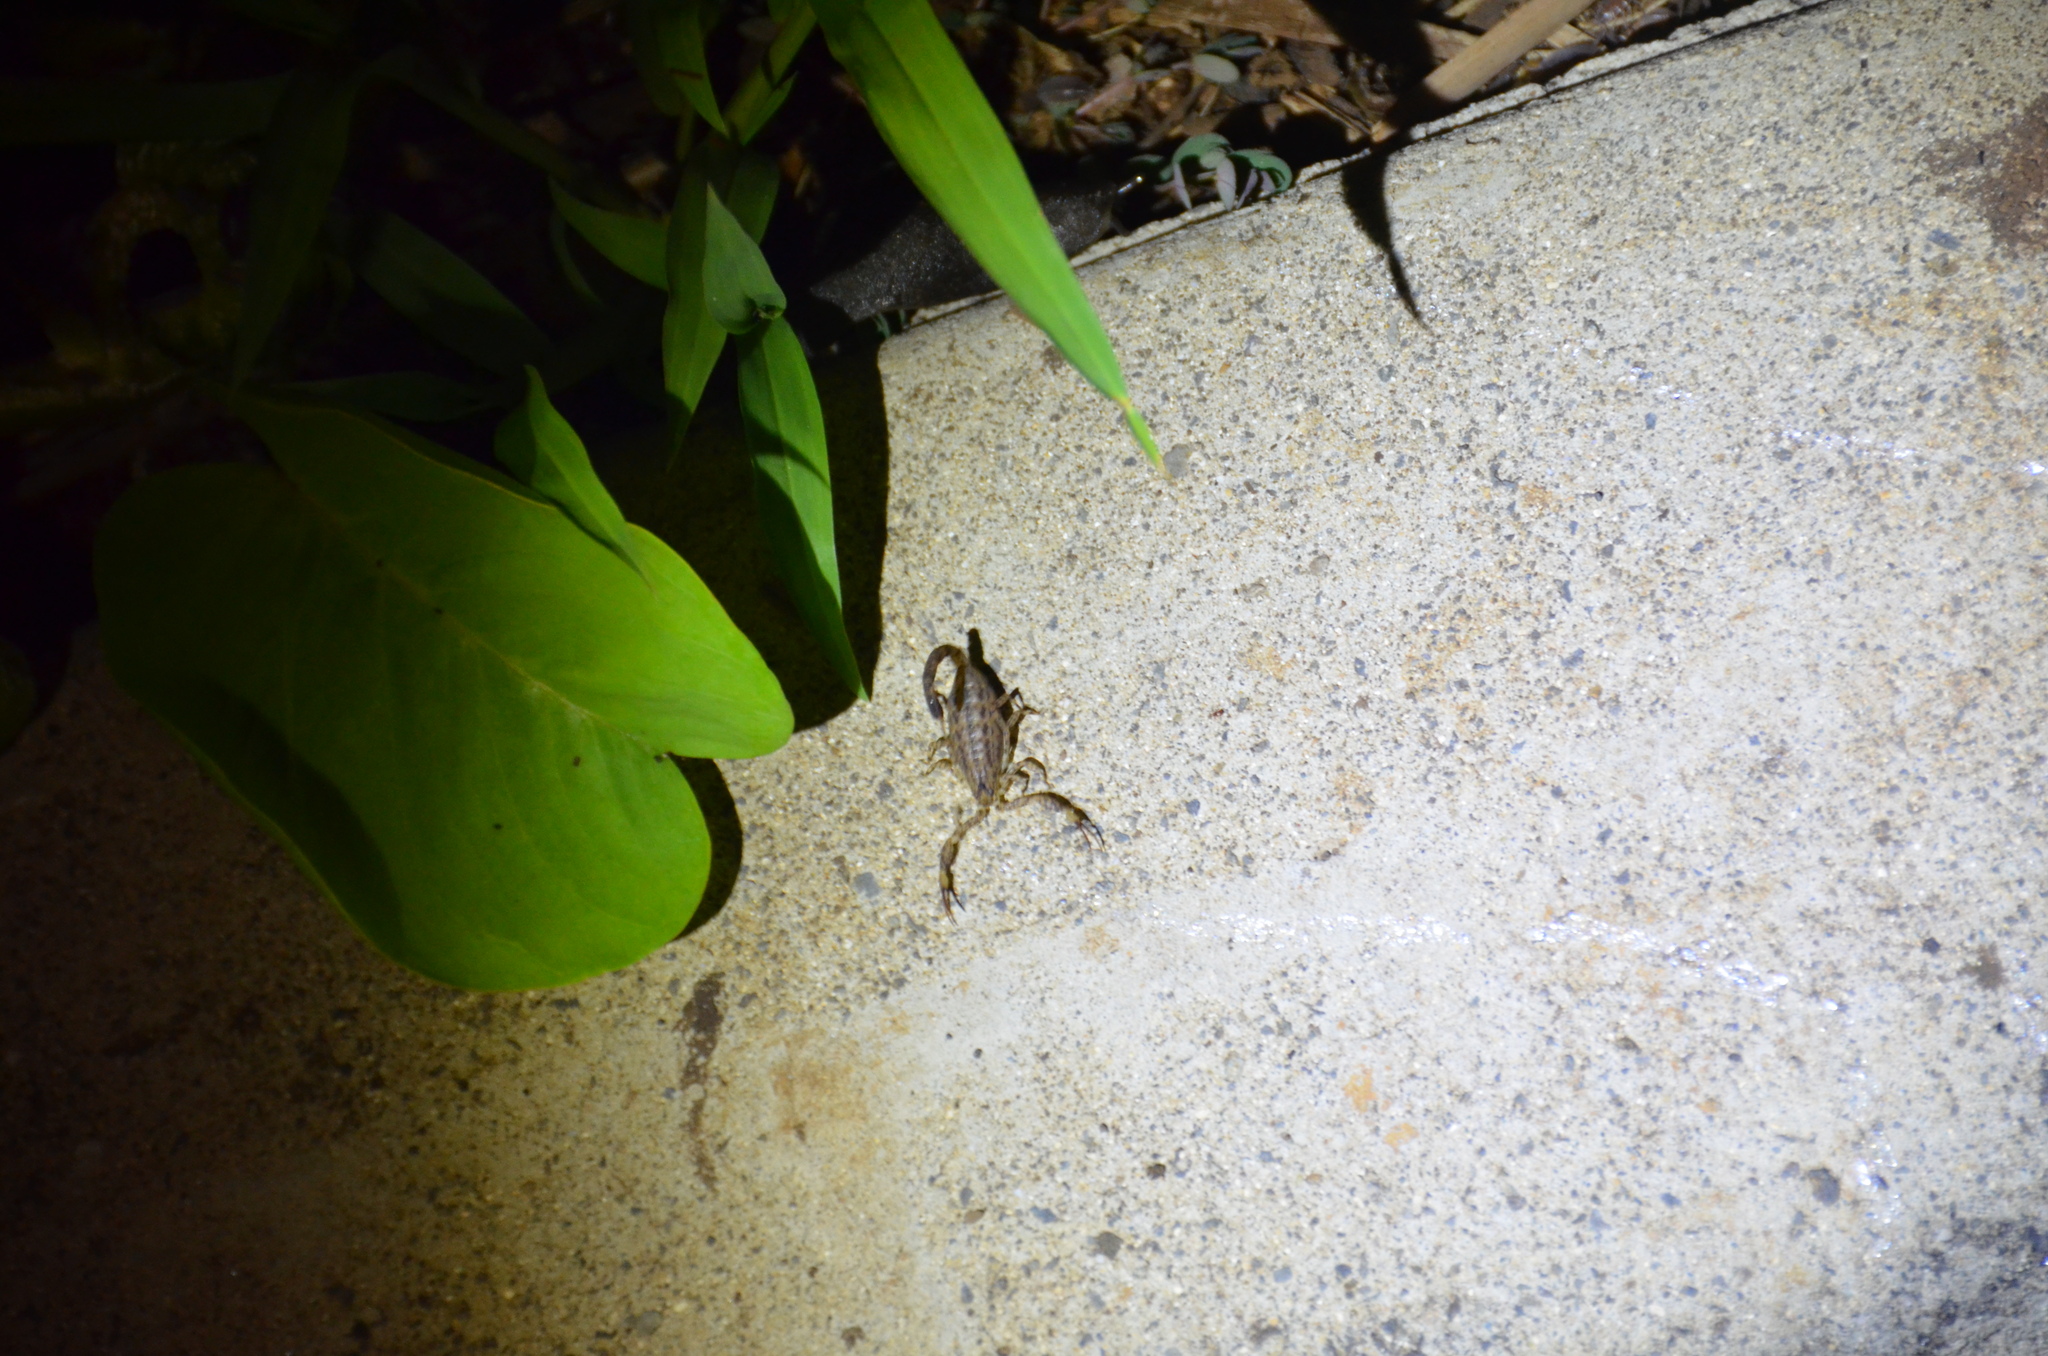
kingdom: Animalia
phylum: Arthropoda
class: Arachnida
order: Scorpiones
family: Buthidae
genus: Isometrus
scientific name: Isometrus maculatus
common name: Scorpions
